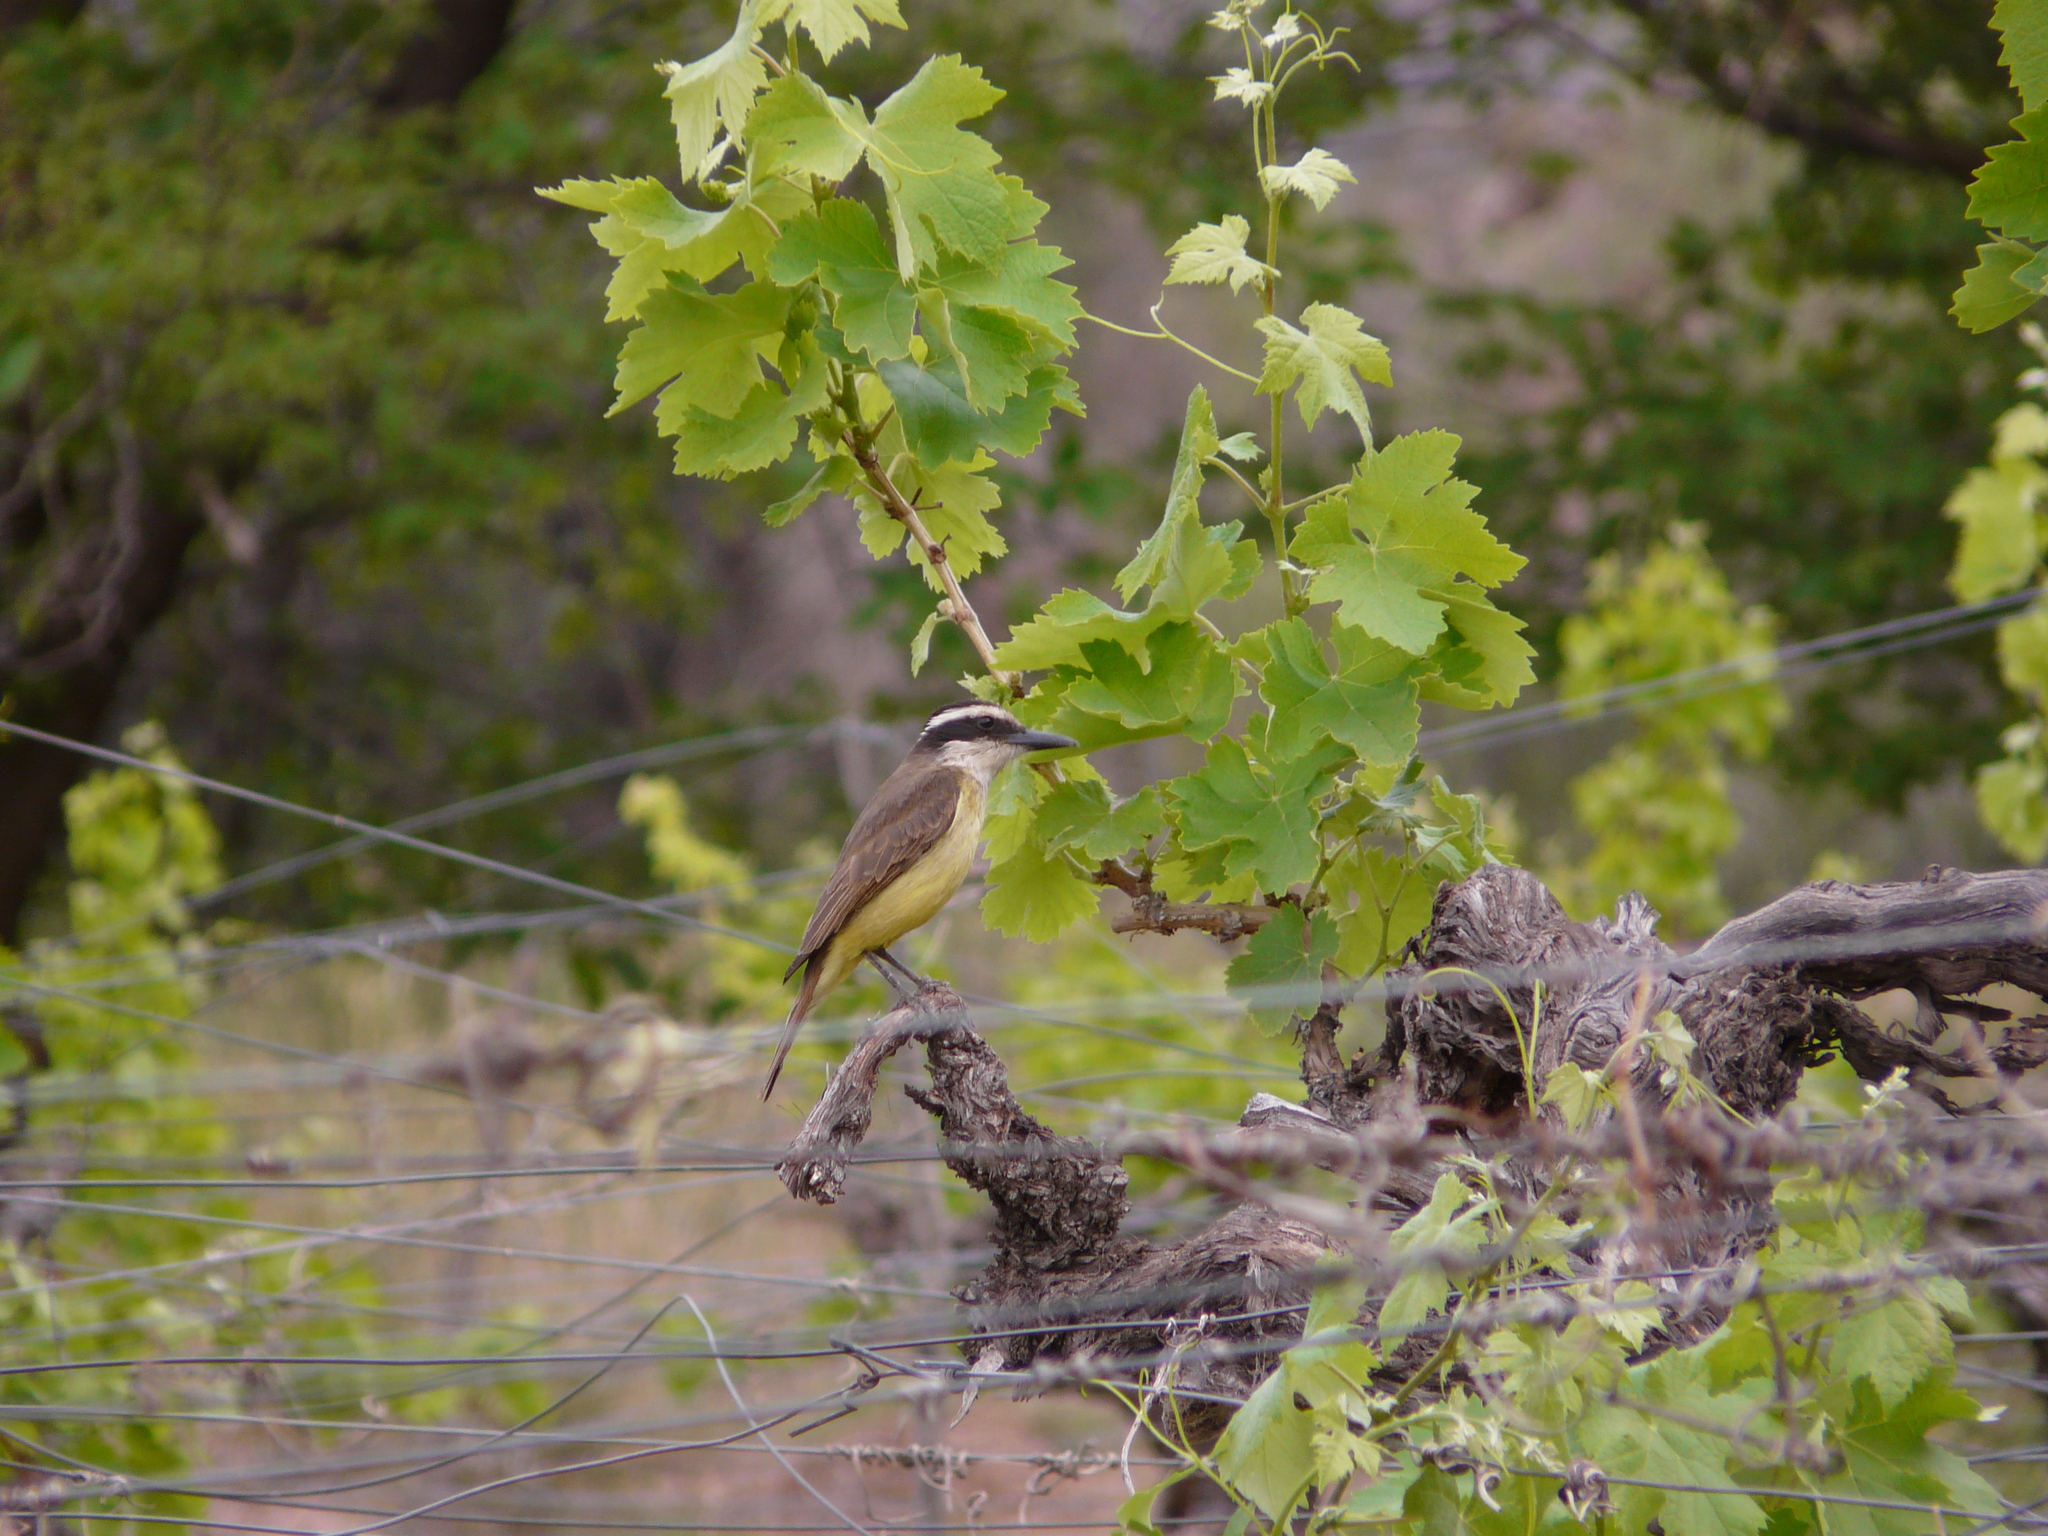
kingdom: Animalia
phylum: Chordata
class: Aves
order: Passeriformes
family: Tyrannidae
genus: Pitangus
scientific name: Pitangus sulphuratus
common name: Great kiskadee
